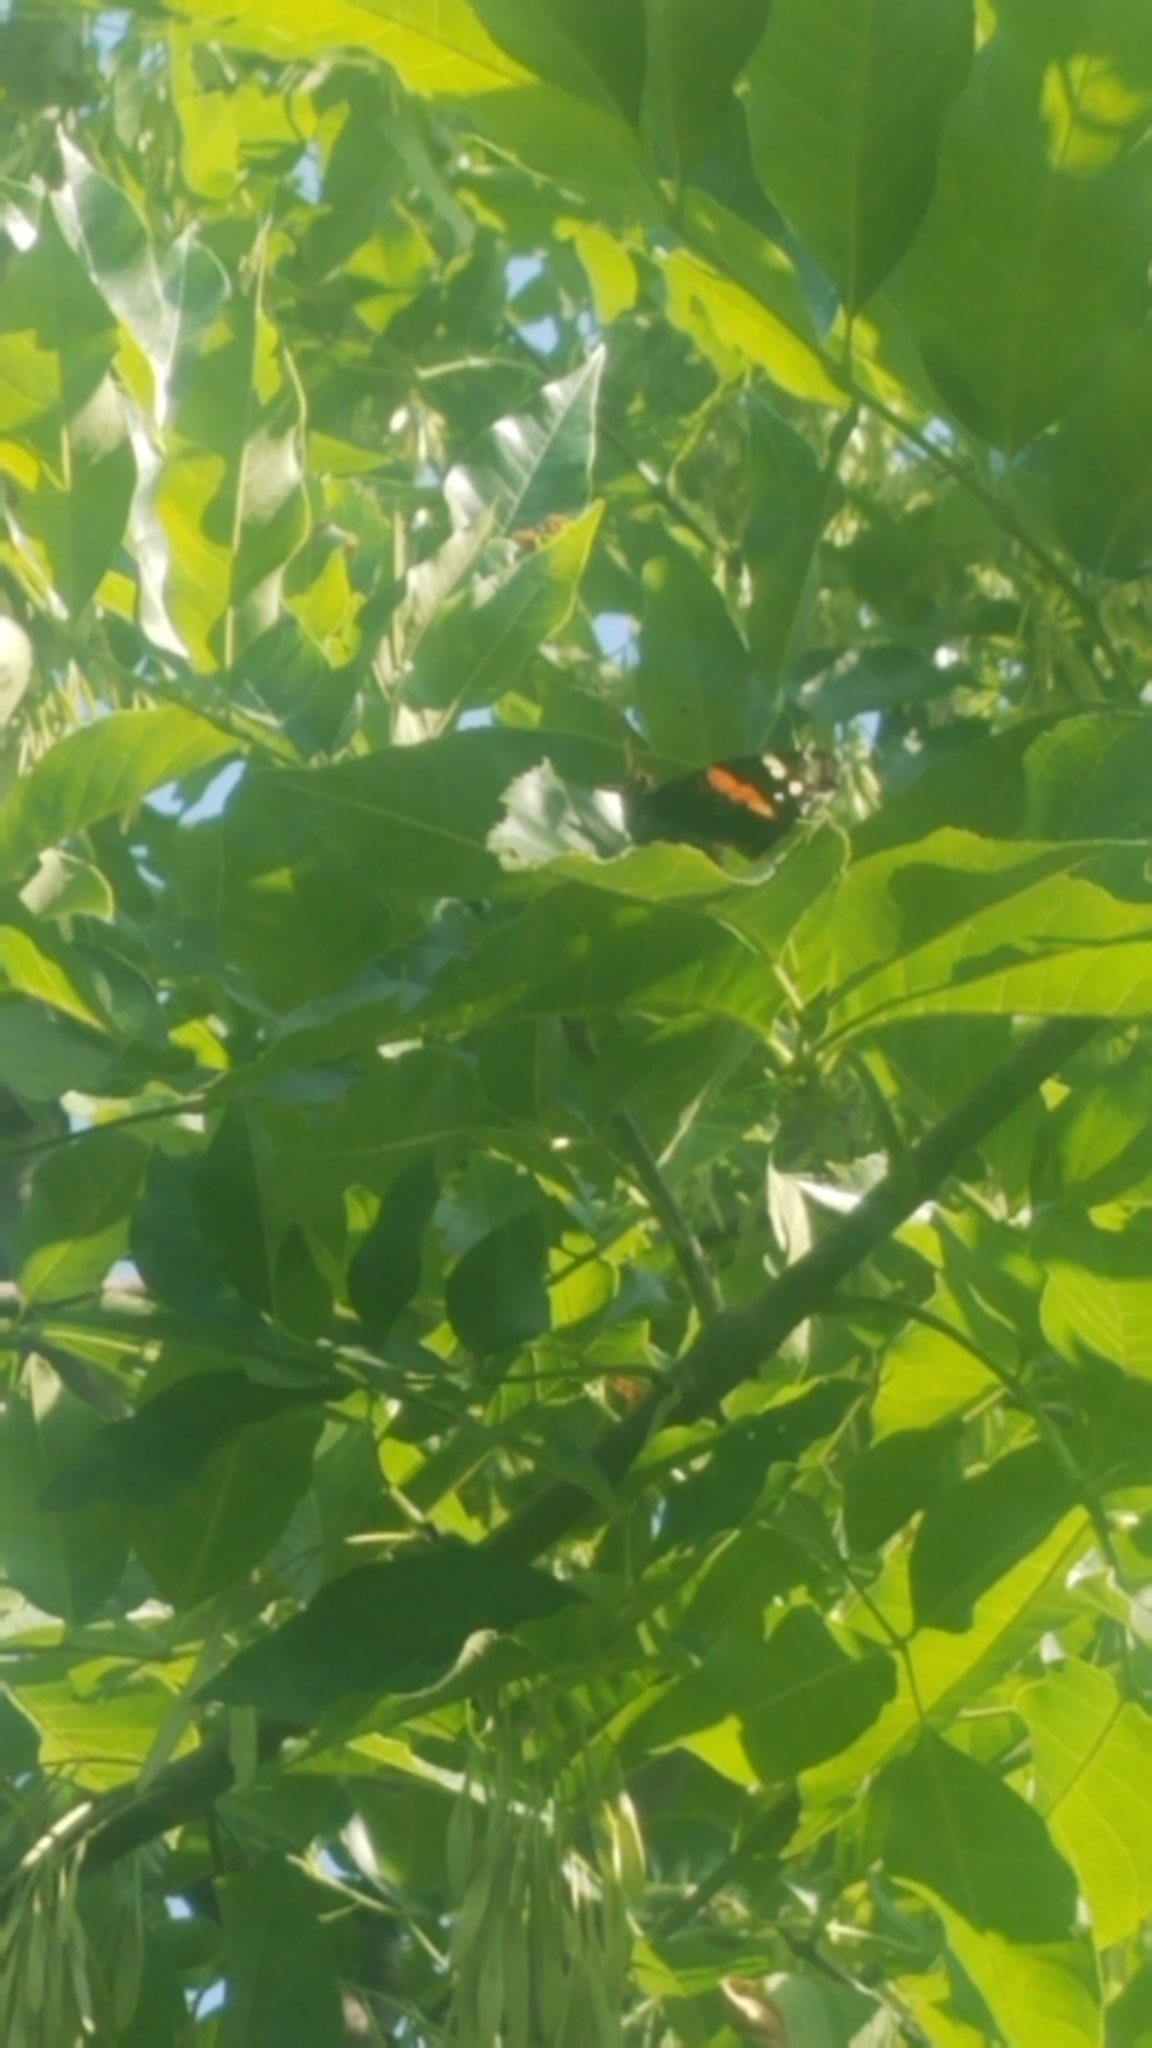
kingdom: Animalia
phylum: Arthropoda
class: Insecta
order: Lepidoptera
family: Nymphalidae
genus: Vanessa
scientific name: Vanessa atalanta
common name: Red admiral
